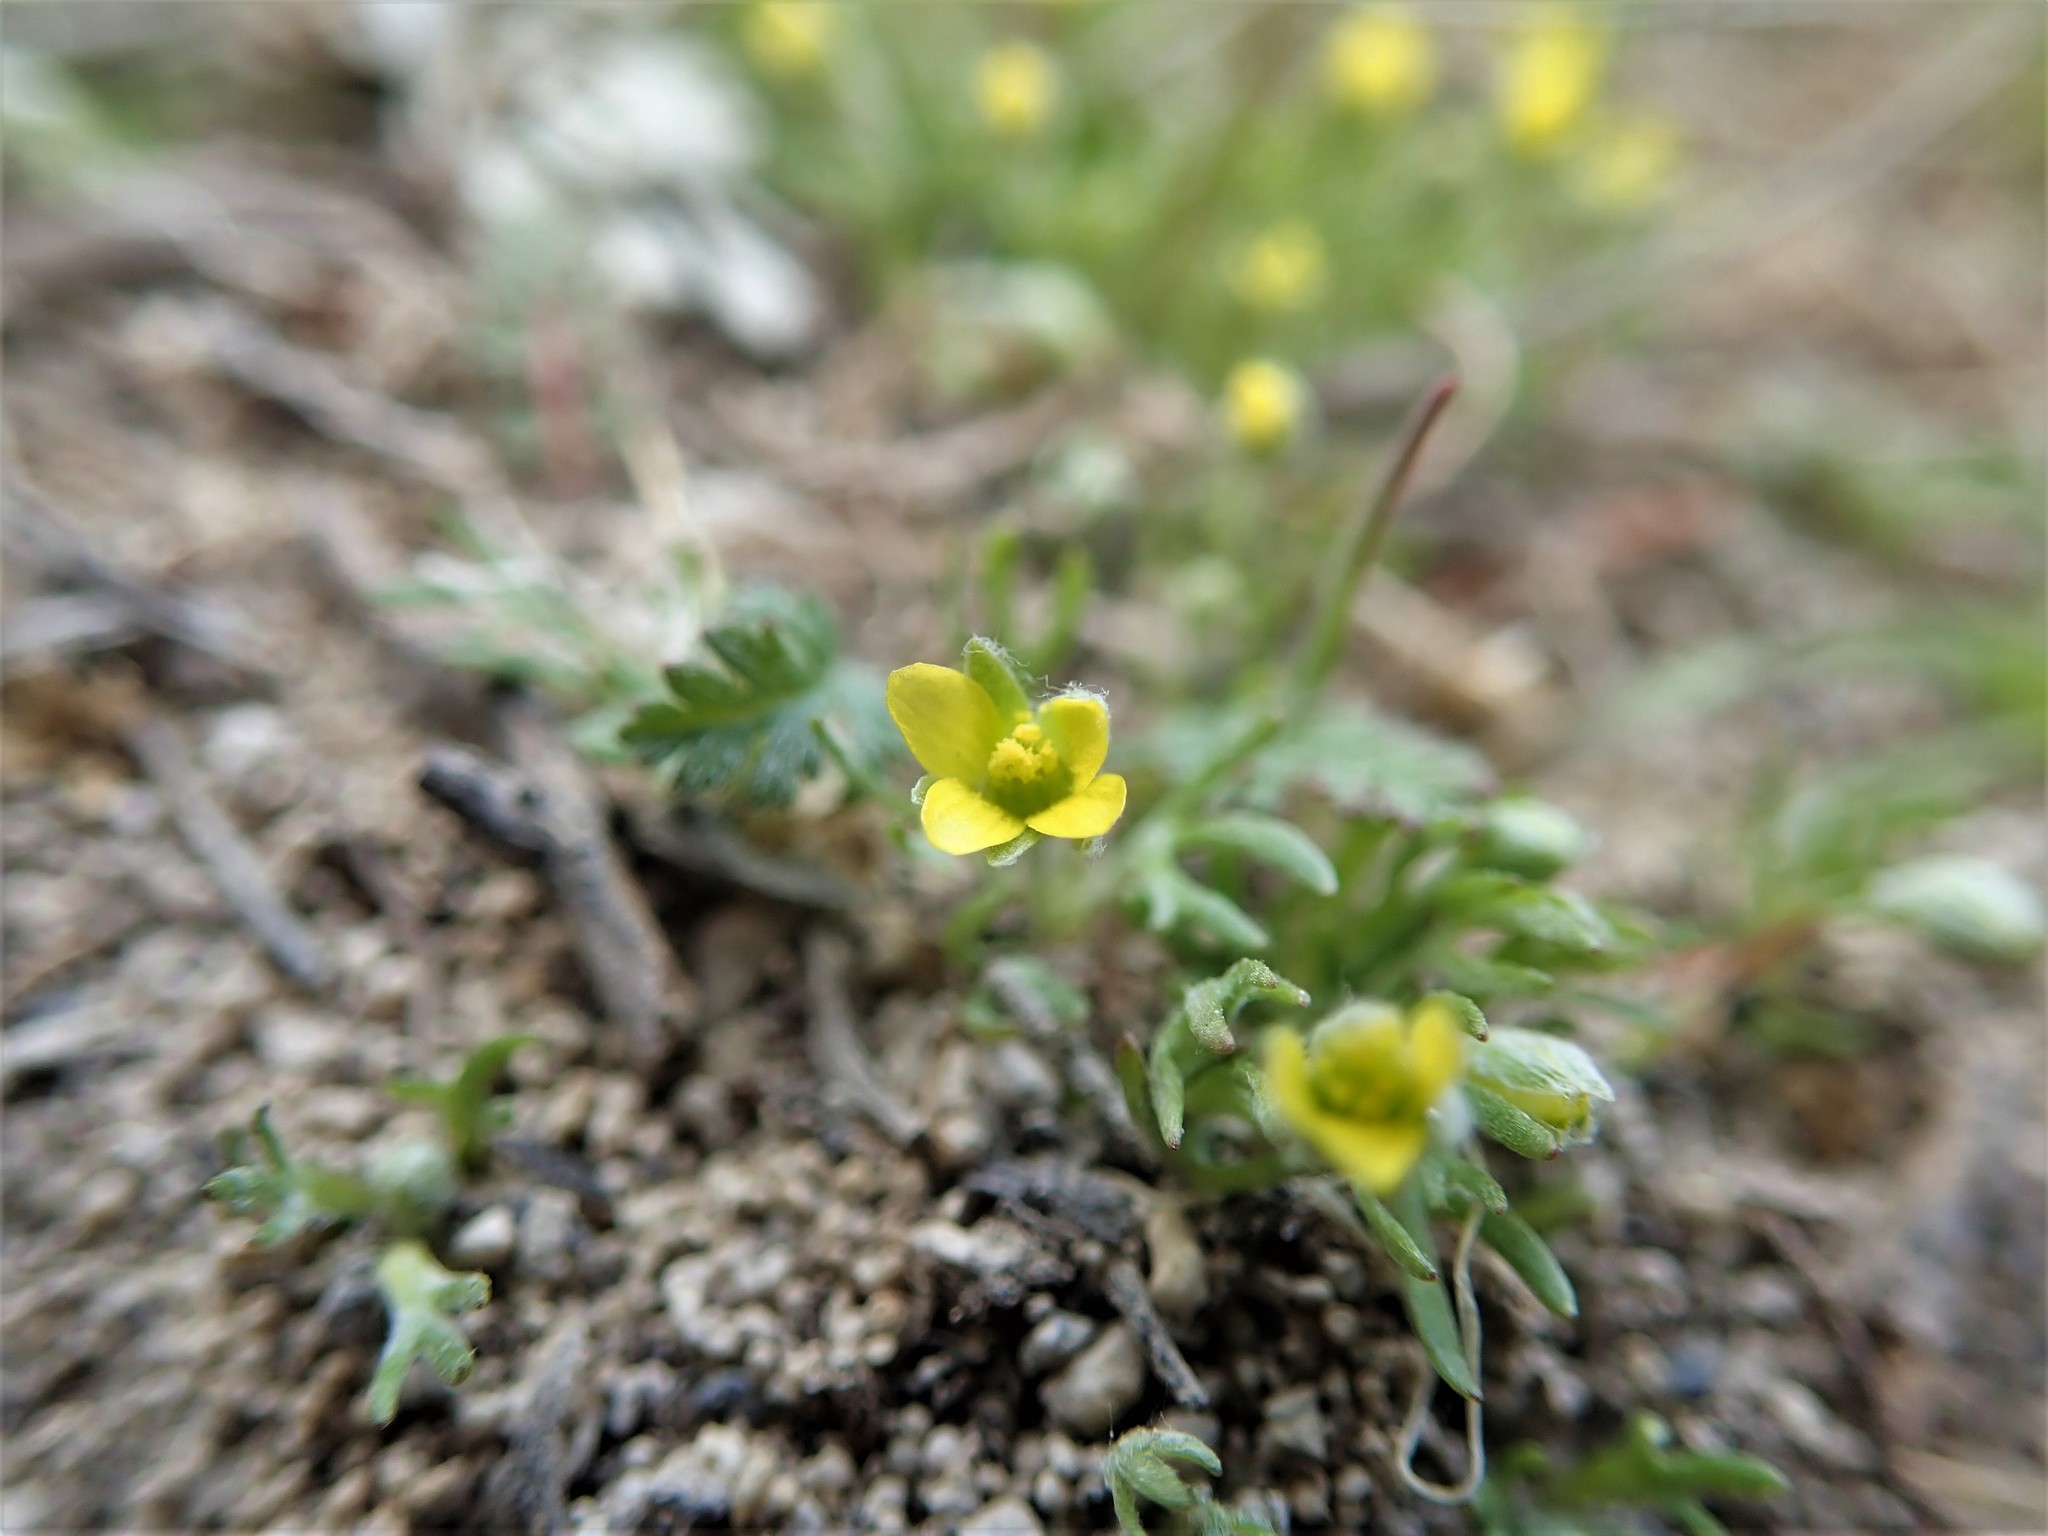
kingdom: Plantae
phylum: Tracheophyta
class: Magnoliopsida
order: Ranunculales
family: Ranunculaceae
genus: Ceratocephala
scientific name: Ceratocephala orthoceras
